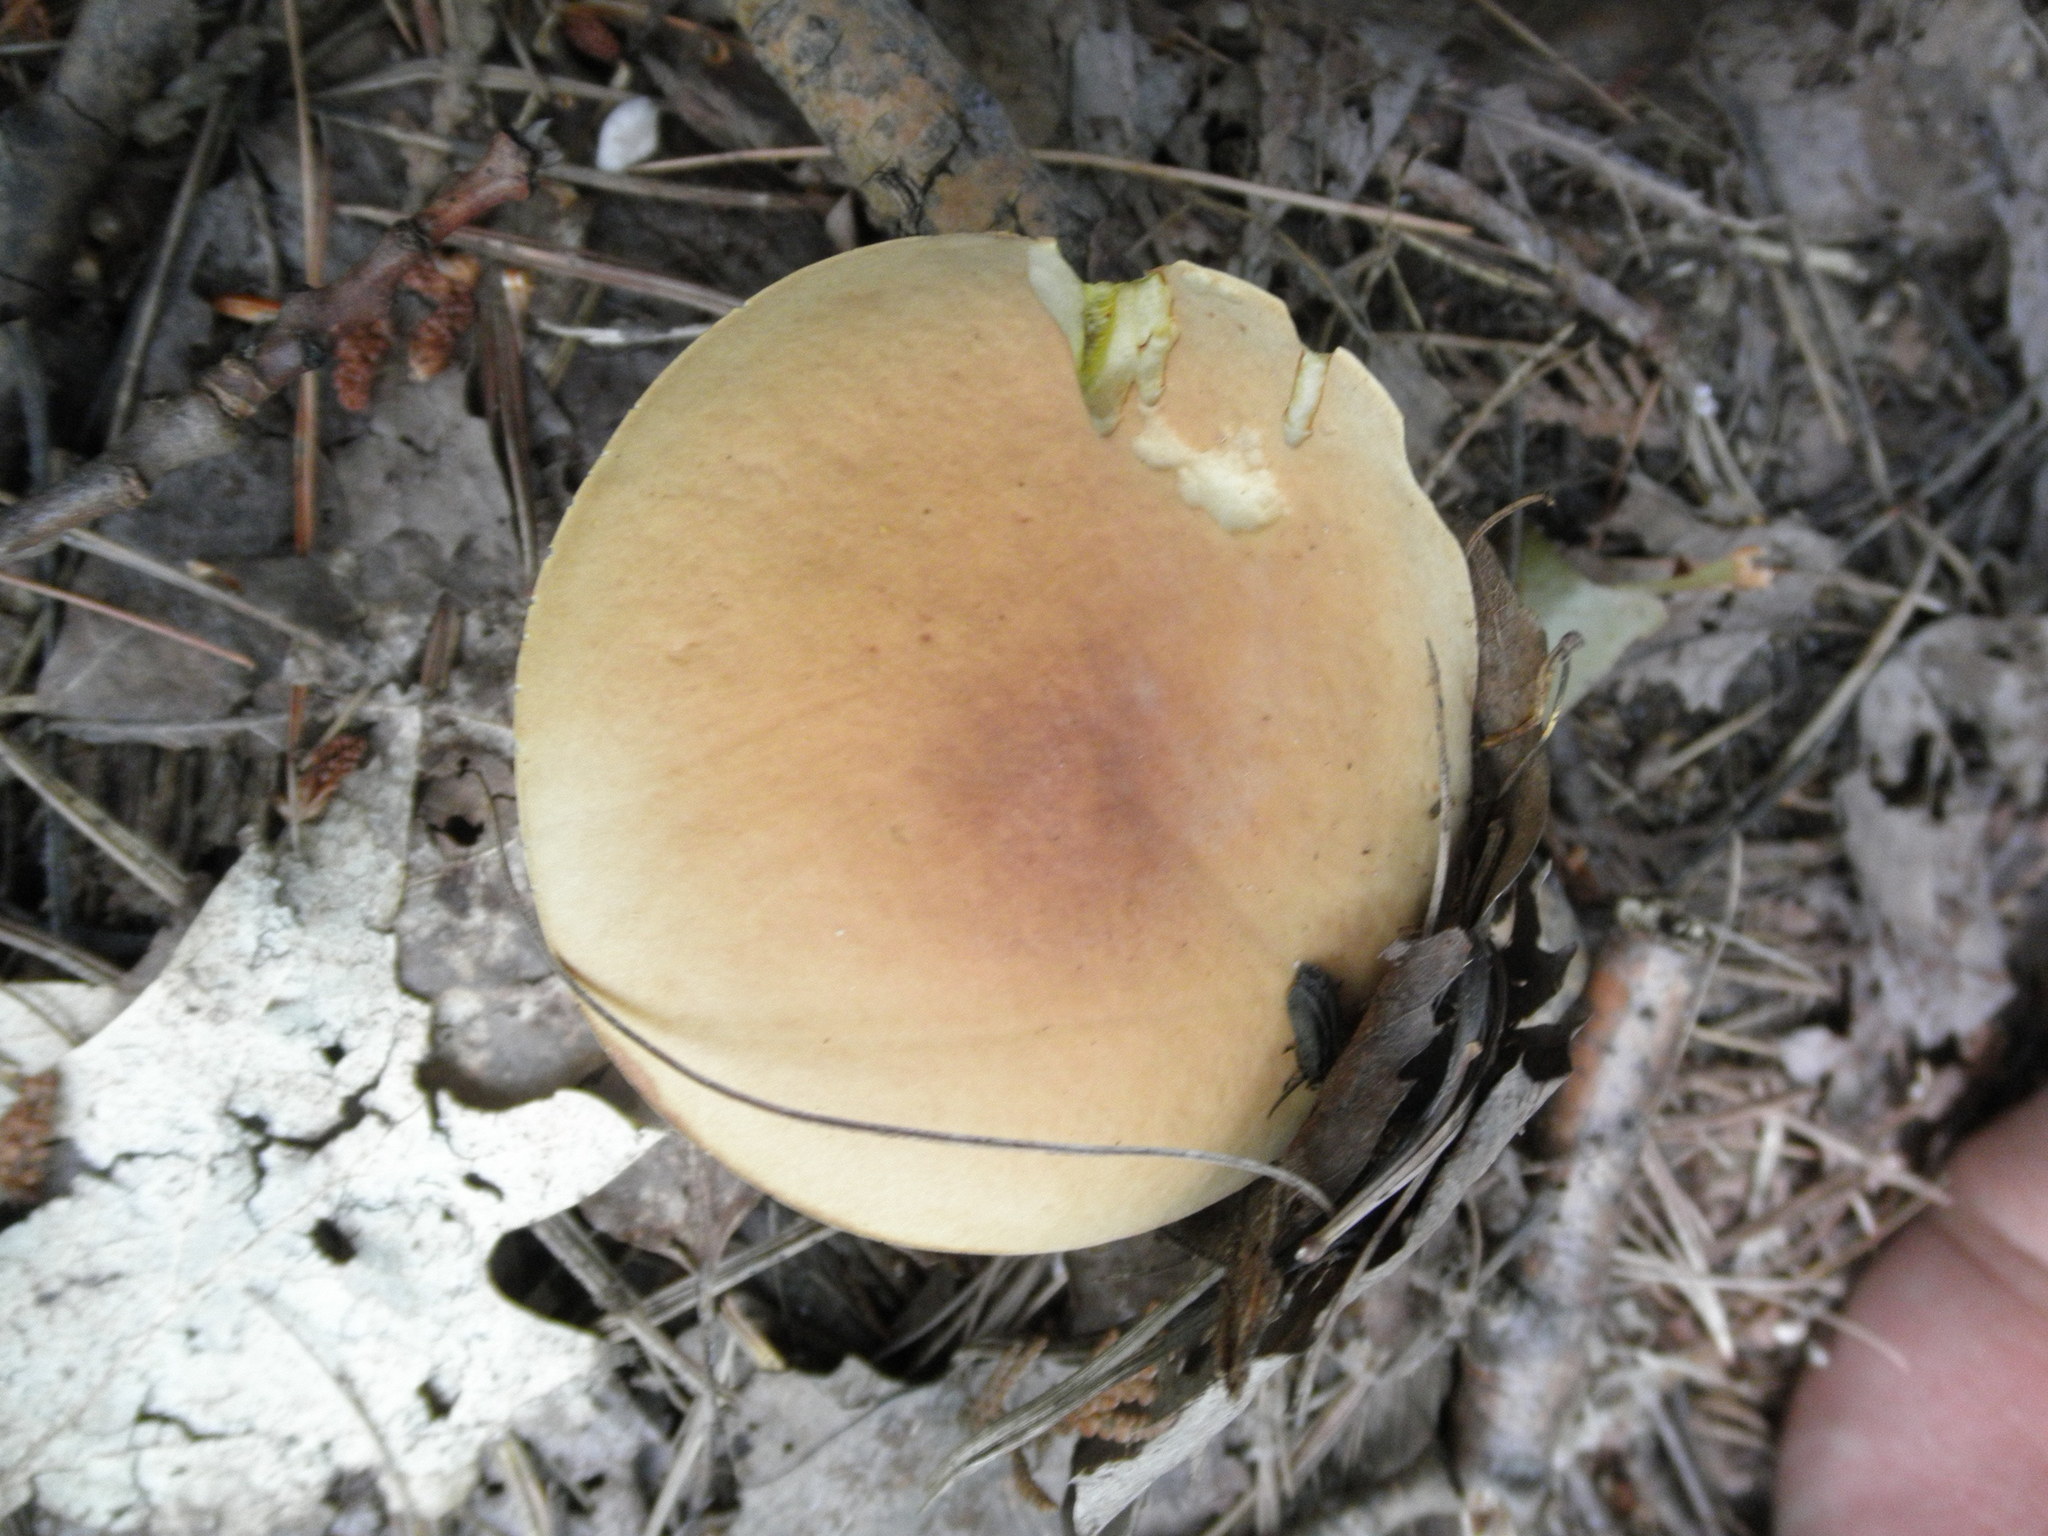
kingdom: Fungi
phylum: Basidiomycota
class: Agaricomycetes
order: Boletales
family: Boletaceae
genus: Hemileccinum
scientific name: Hemileccinum subglabripes
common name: Smoothish-stemmed bolete
